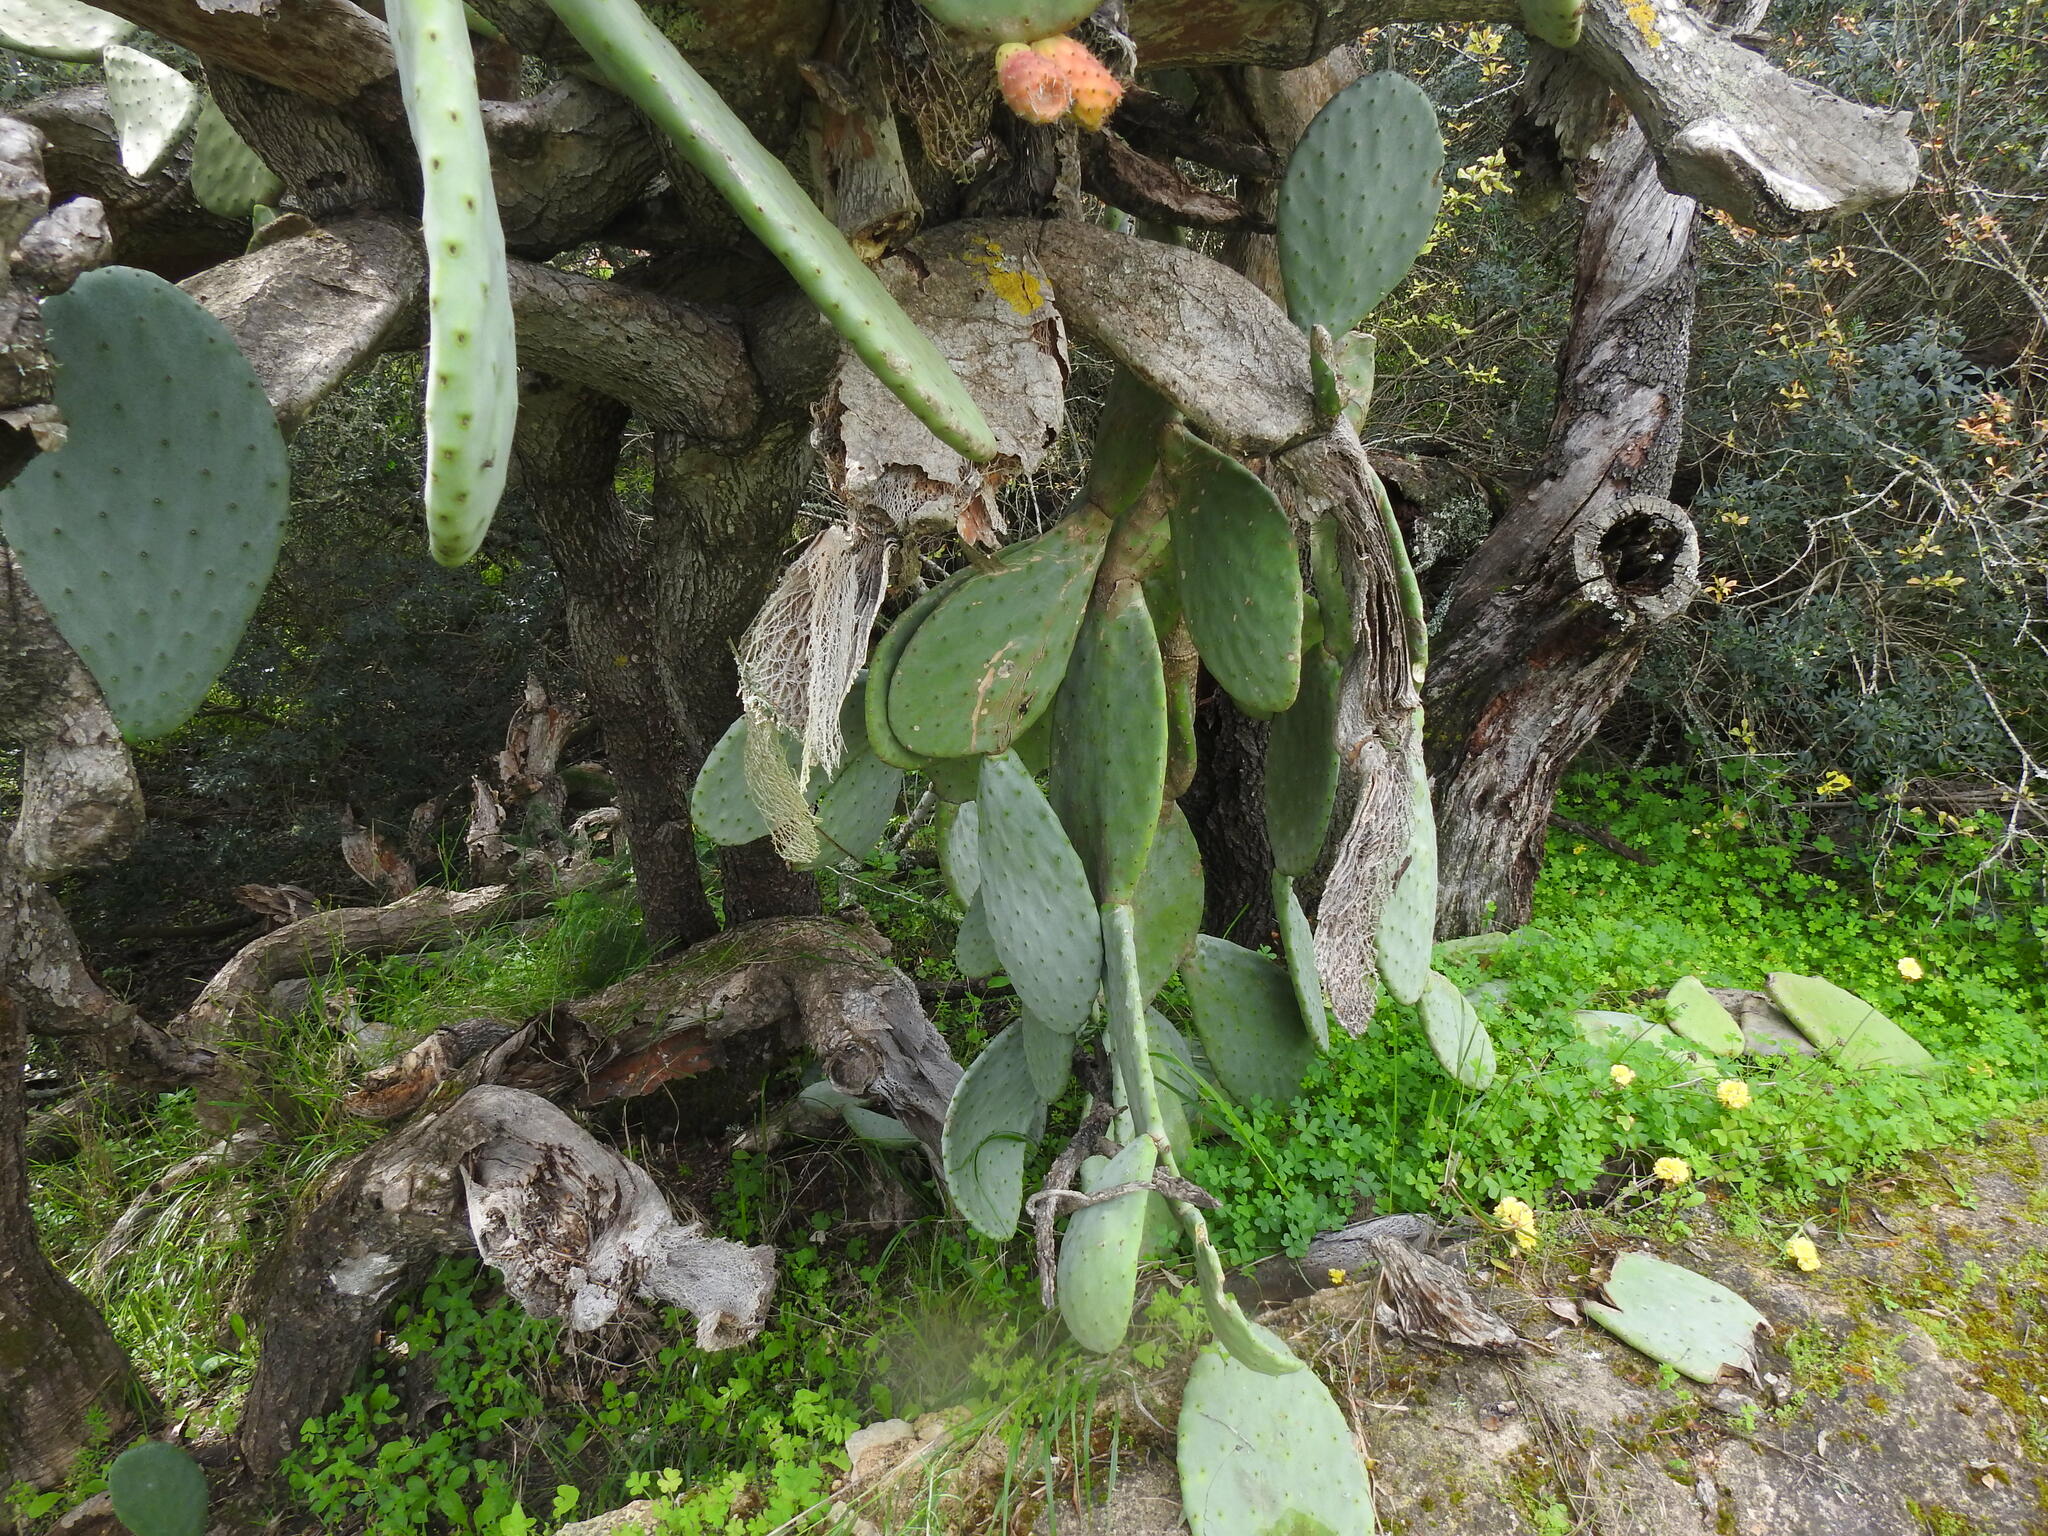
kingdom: Plantae
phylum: Tracheophyta
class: Magnoliopsida
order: Caryophyllales
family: Cactaceae
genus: Opuntia
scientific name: Opuntia ficus-indica
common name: Barbary fig
